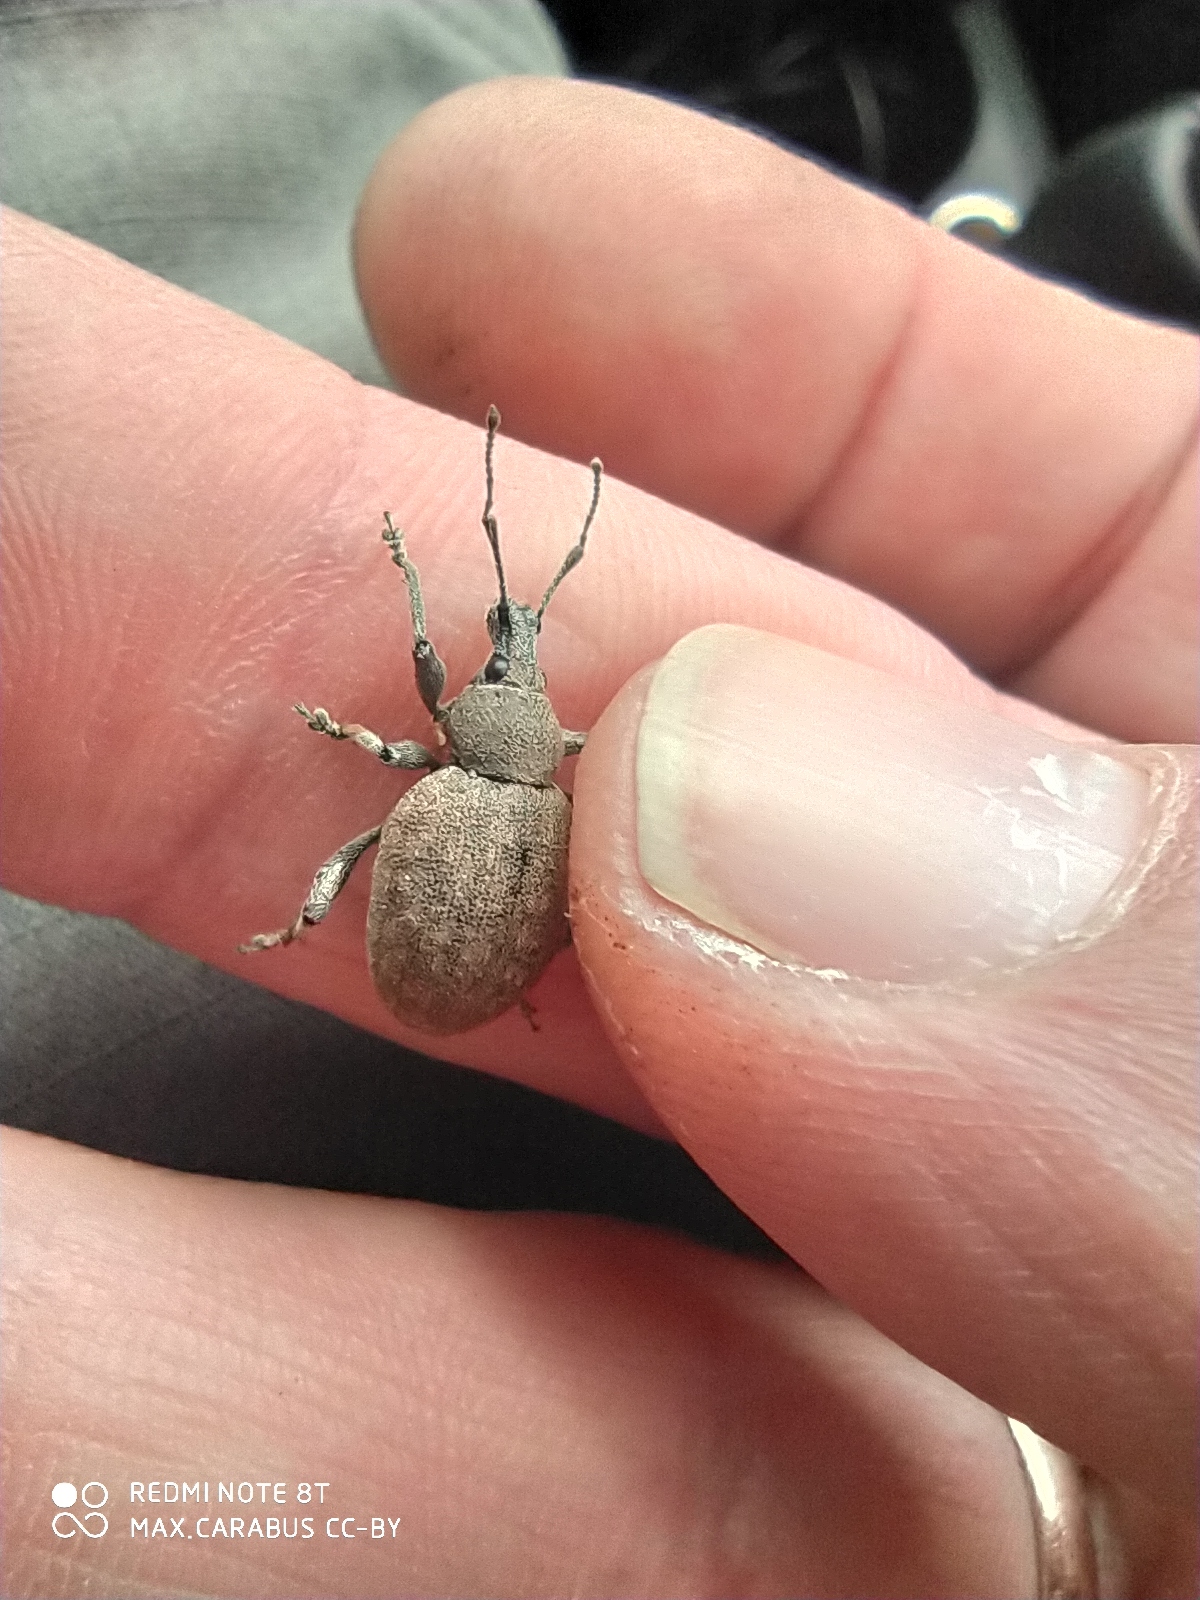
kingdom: Animalia
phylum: Arthropoda
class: Insecta
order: Coleoptera
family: Curculionidae
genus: Otiorhynchus
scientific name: Otiorhynchus ligustici
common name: Weevil
